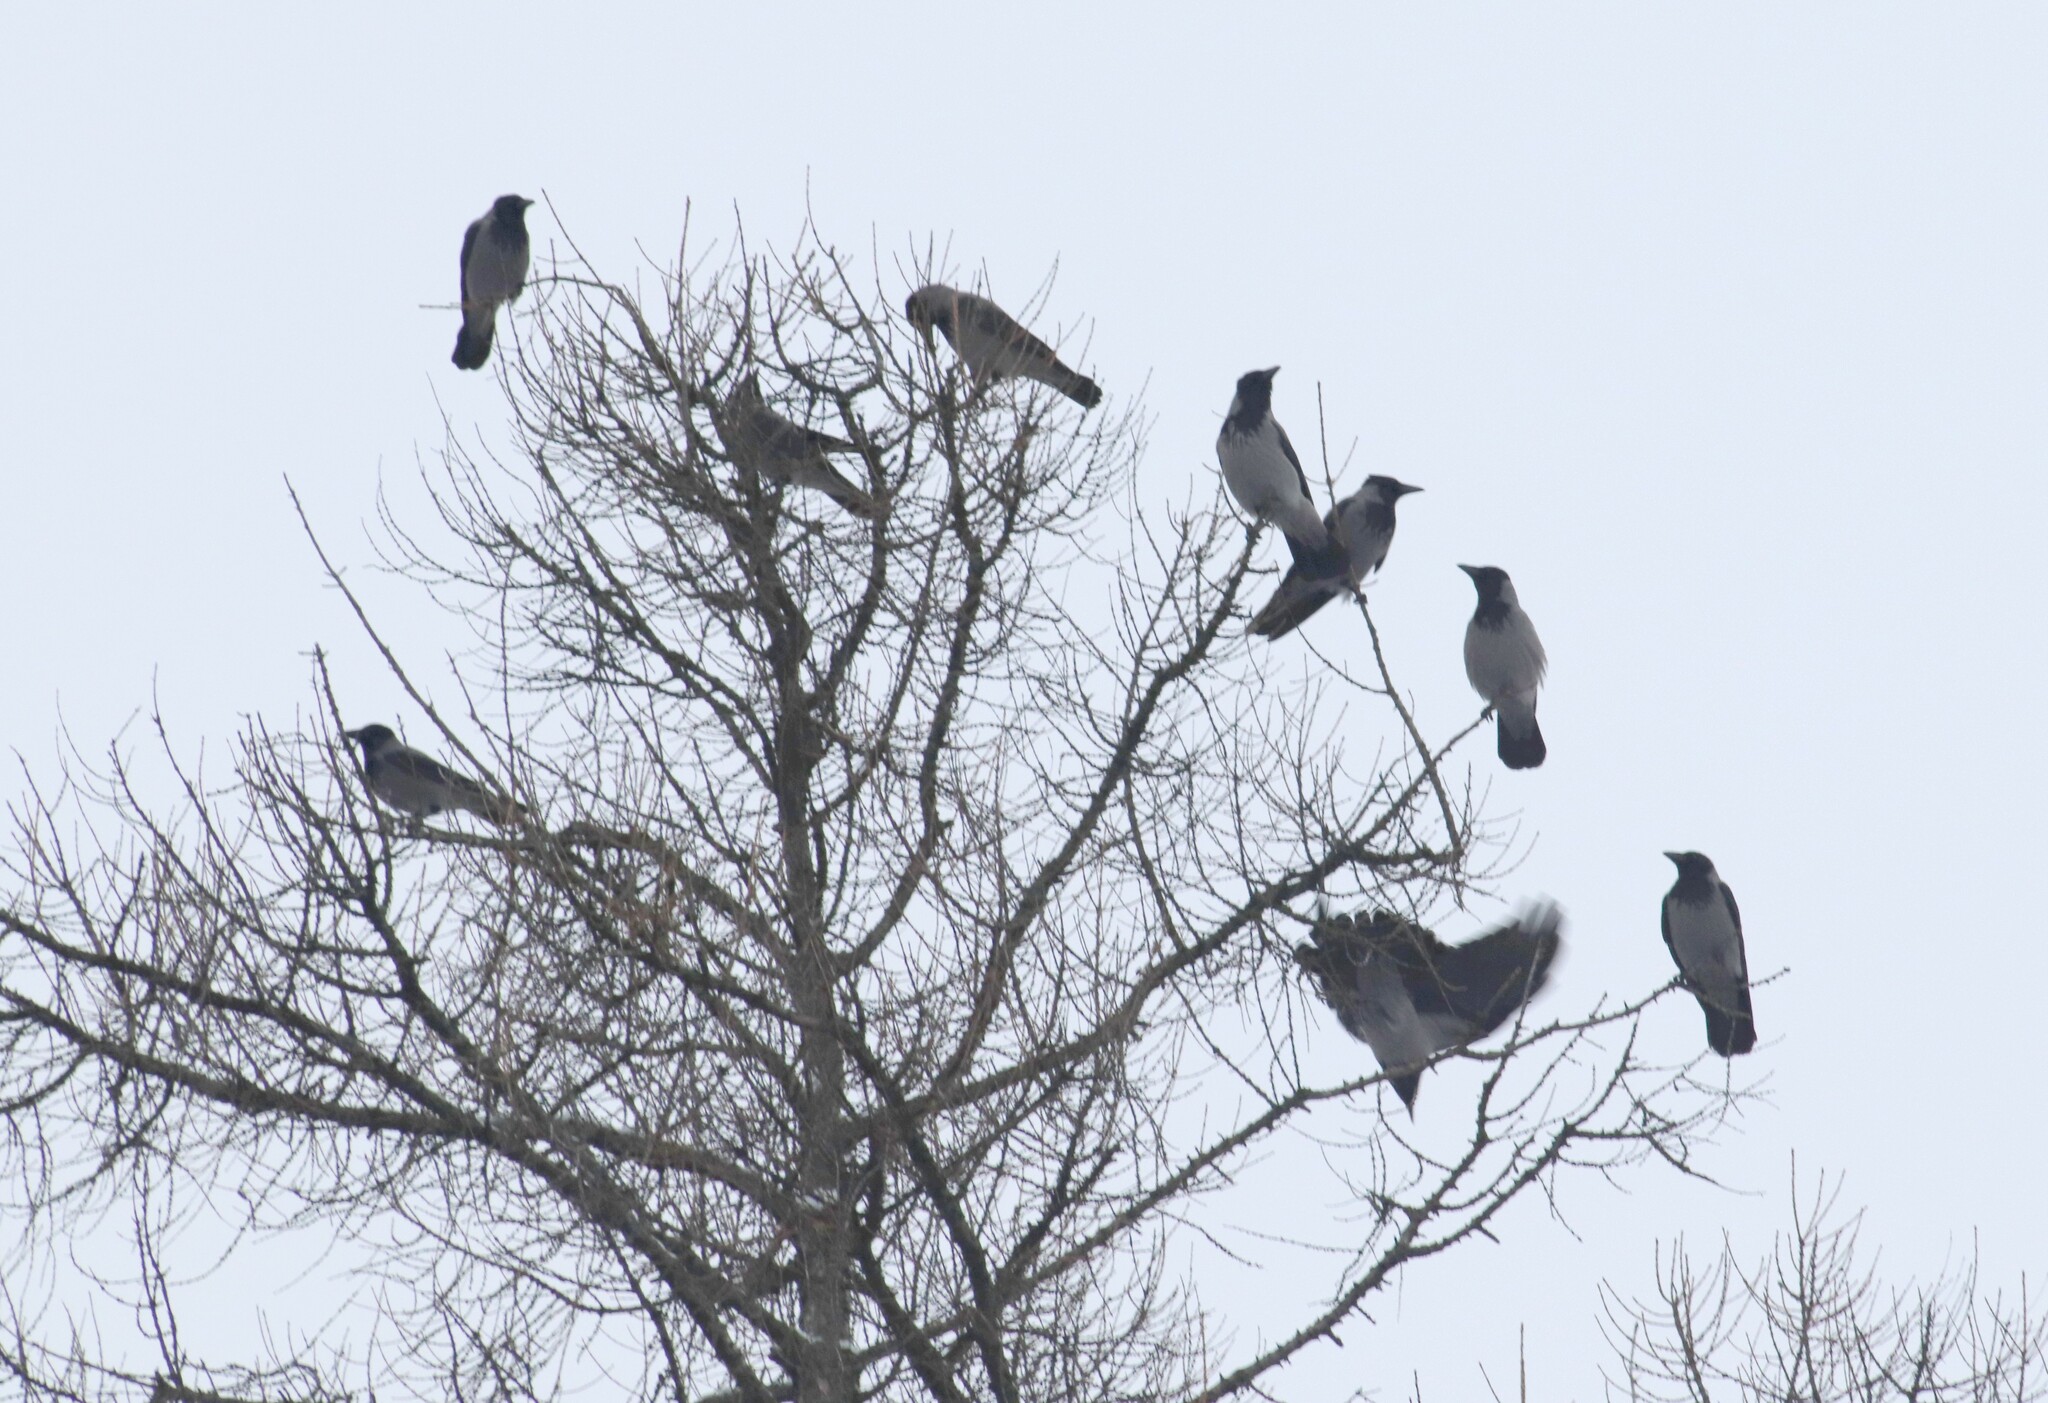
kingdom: Animalia
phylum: Chordata
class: Aves
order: Passeriformes
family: Corvidae
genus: Corvus
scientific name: Corvus cornix
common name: Hooded crow
